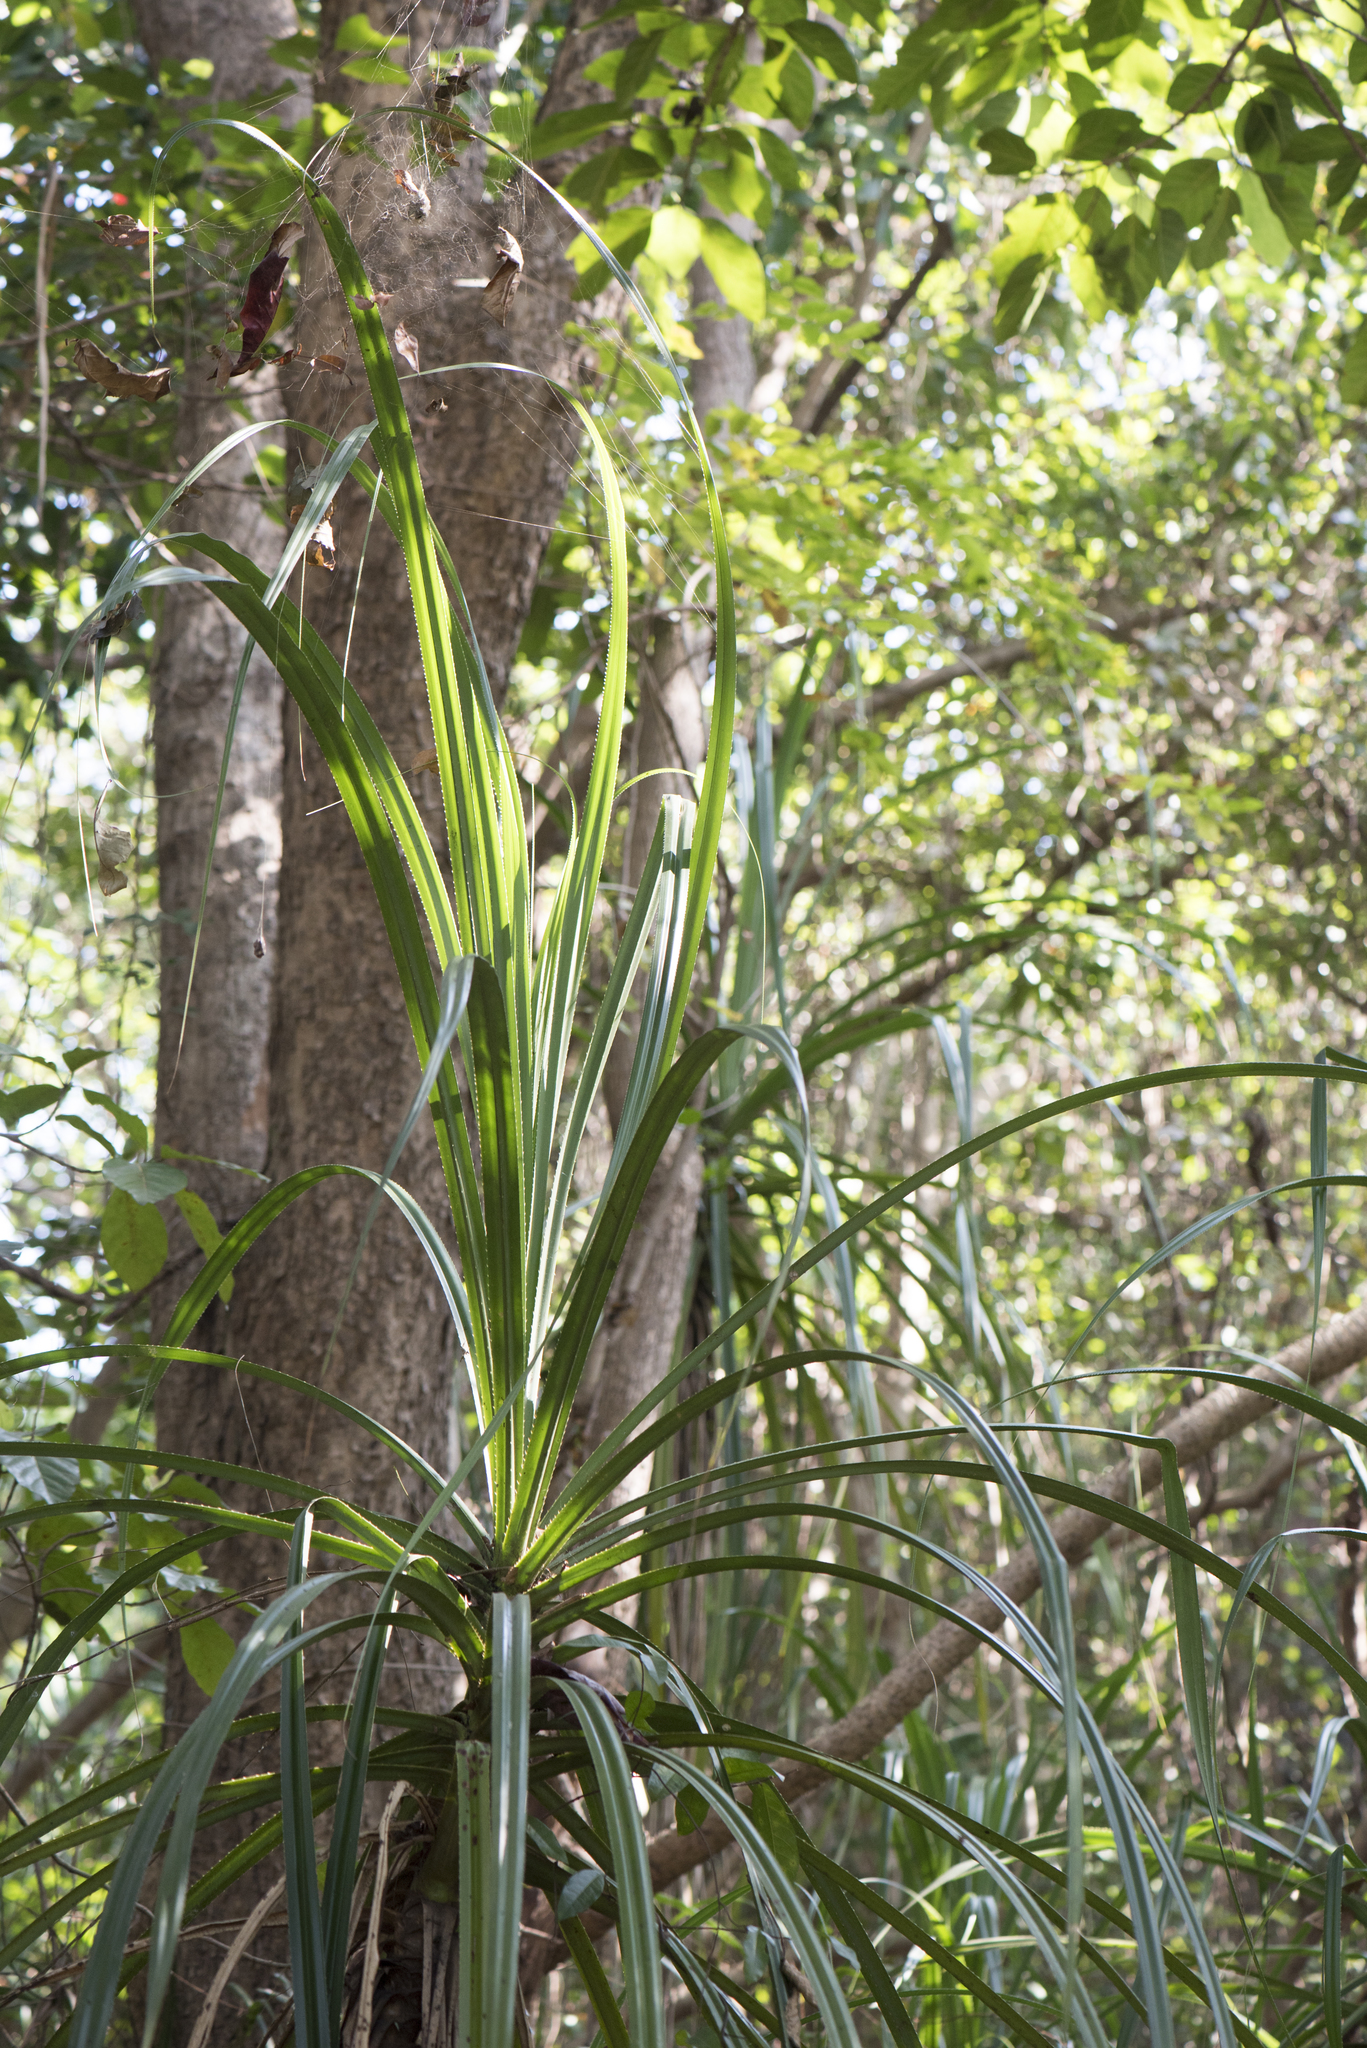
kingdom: Plantae
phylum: Tracheophyta
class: Liliopsida
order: Pandanales
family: Pandanaceae
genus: Pandanus
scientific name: Pandanus odorifer
